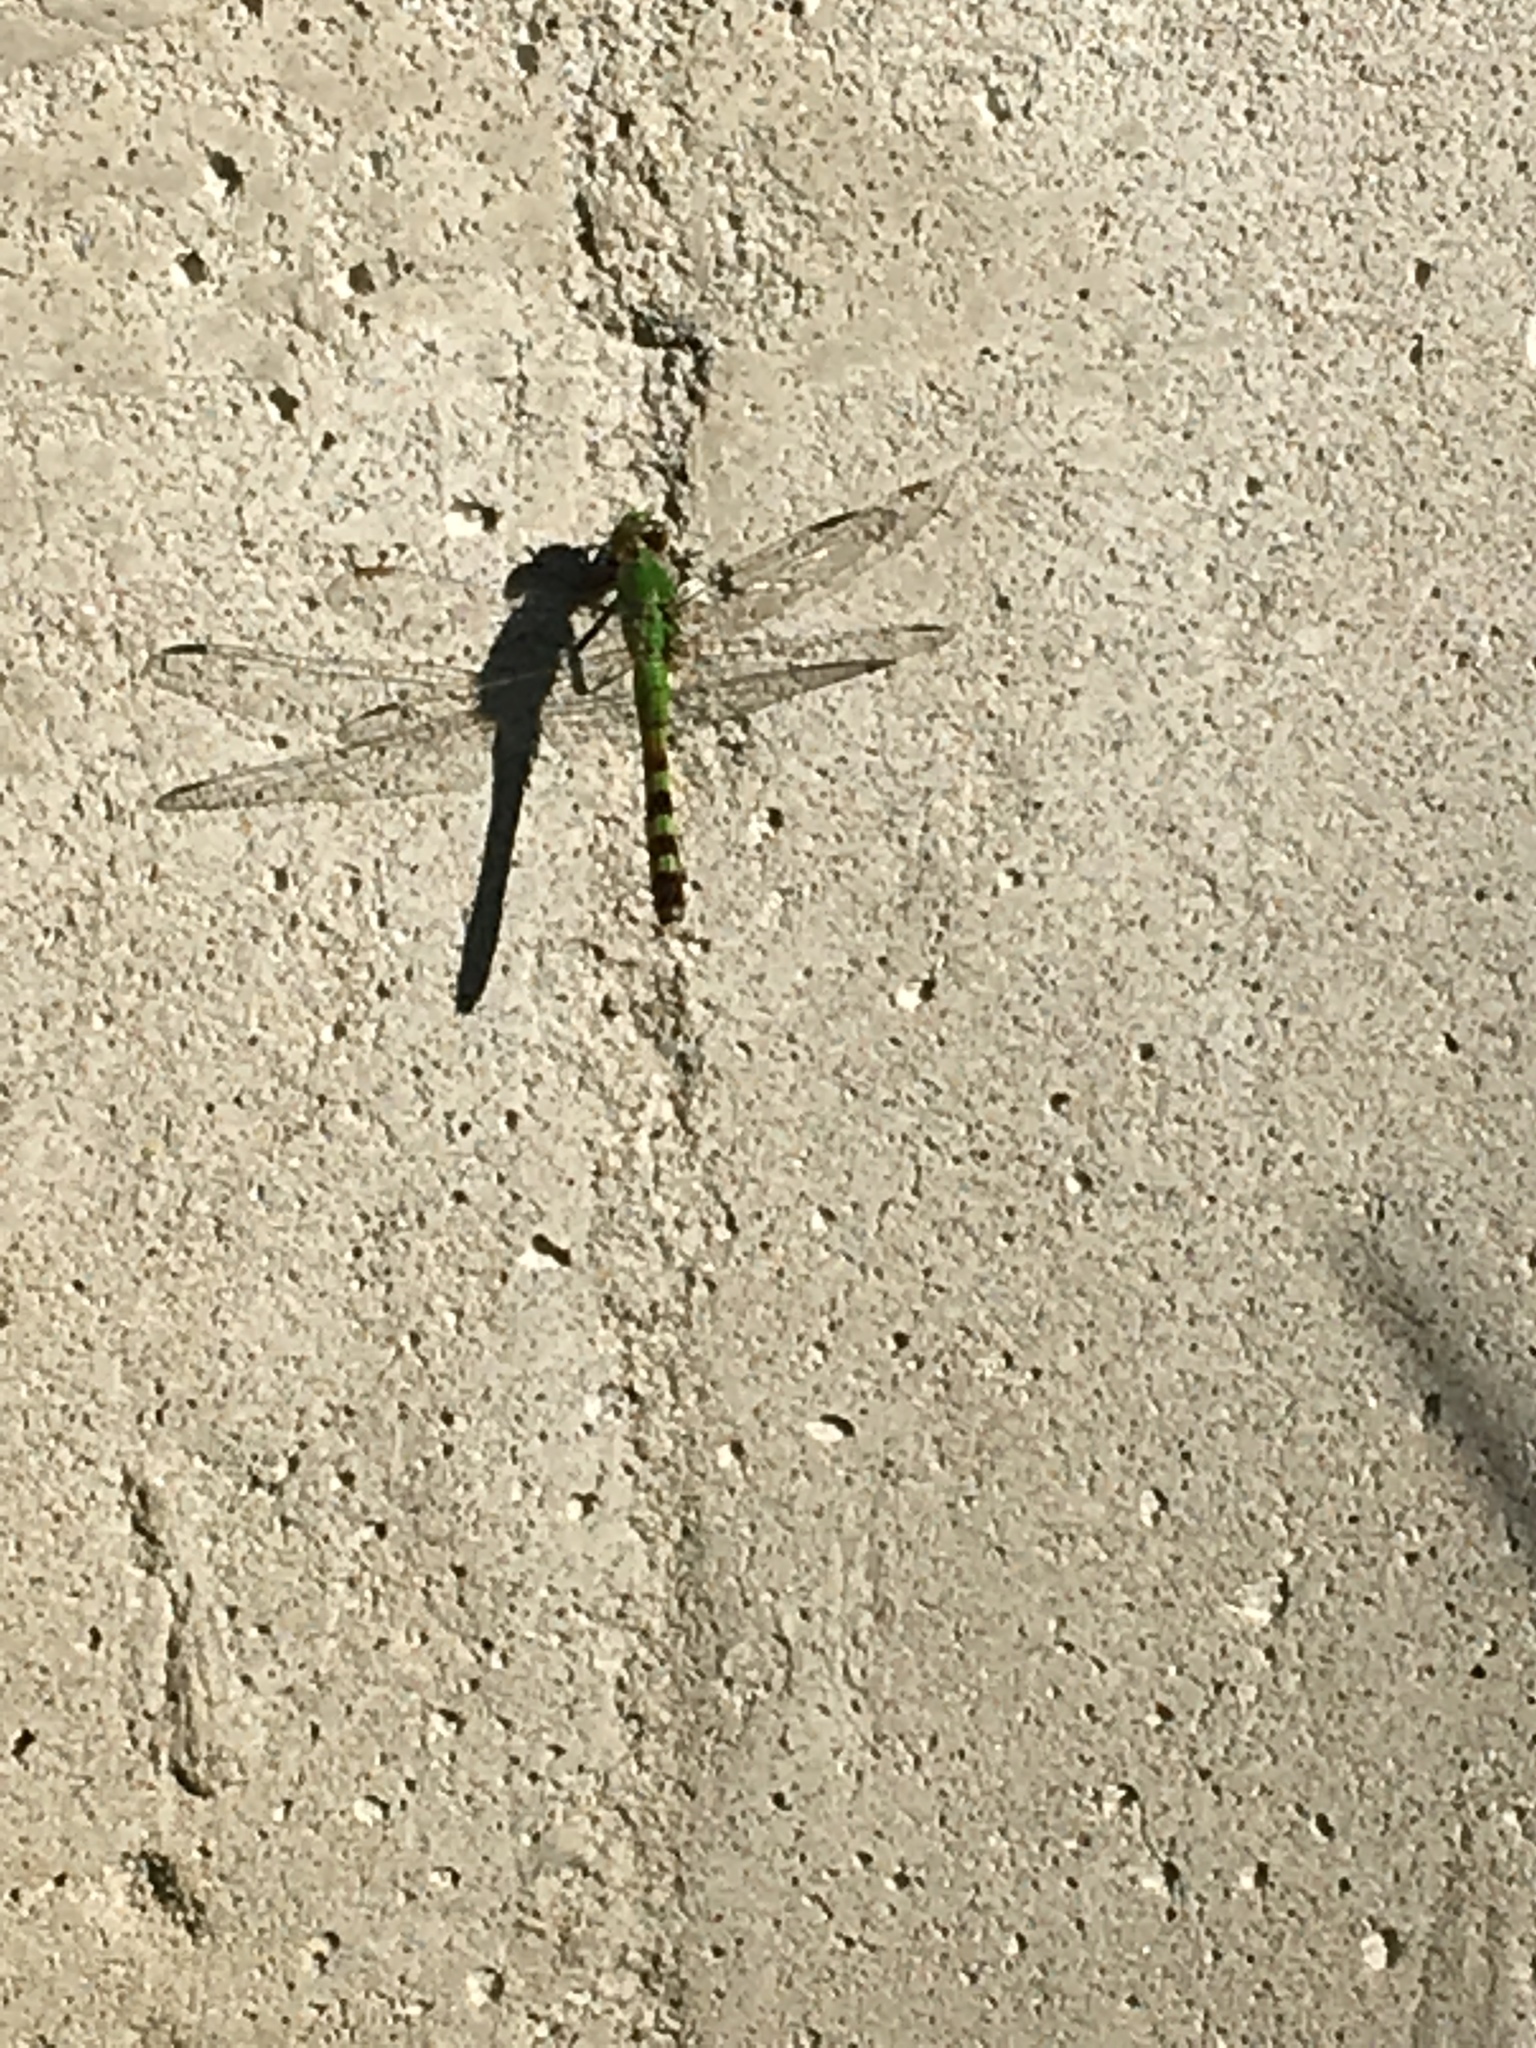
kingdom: Animalia
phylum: Arthropoda
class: Insecta
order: Odonata
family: Libellulidae
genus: Erythemis
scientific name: Erythemis simplicicollis
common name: Eastern pondhawk
